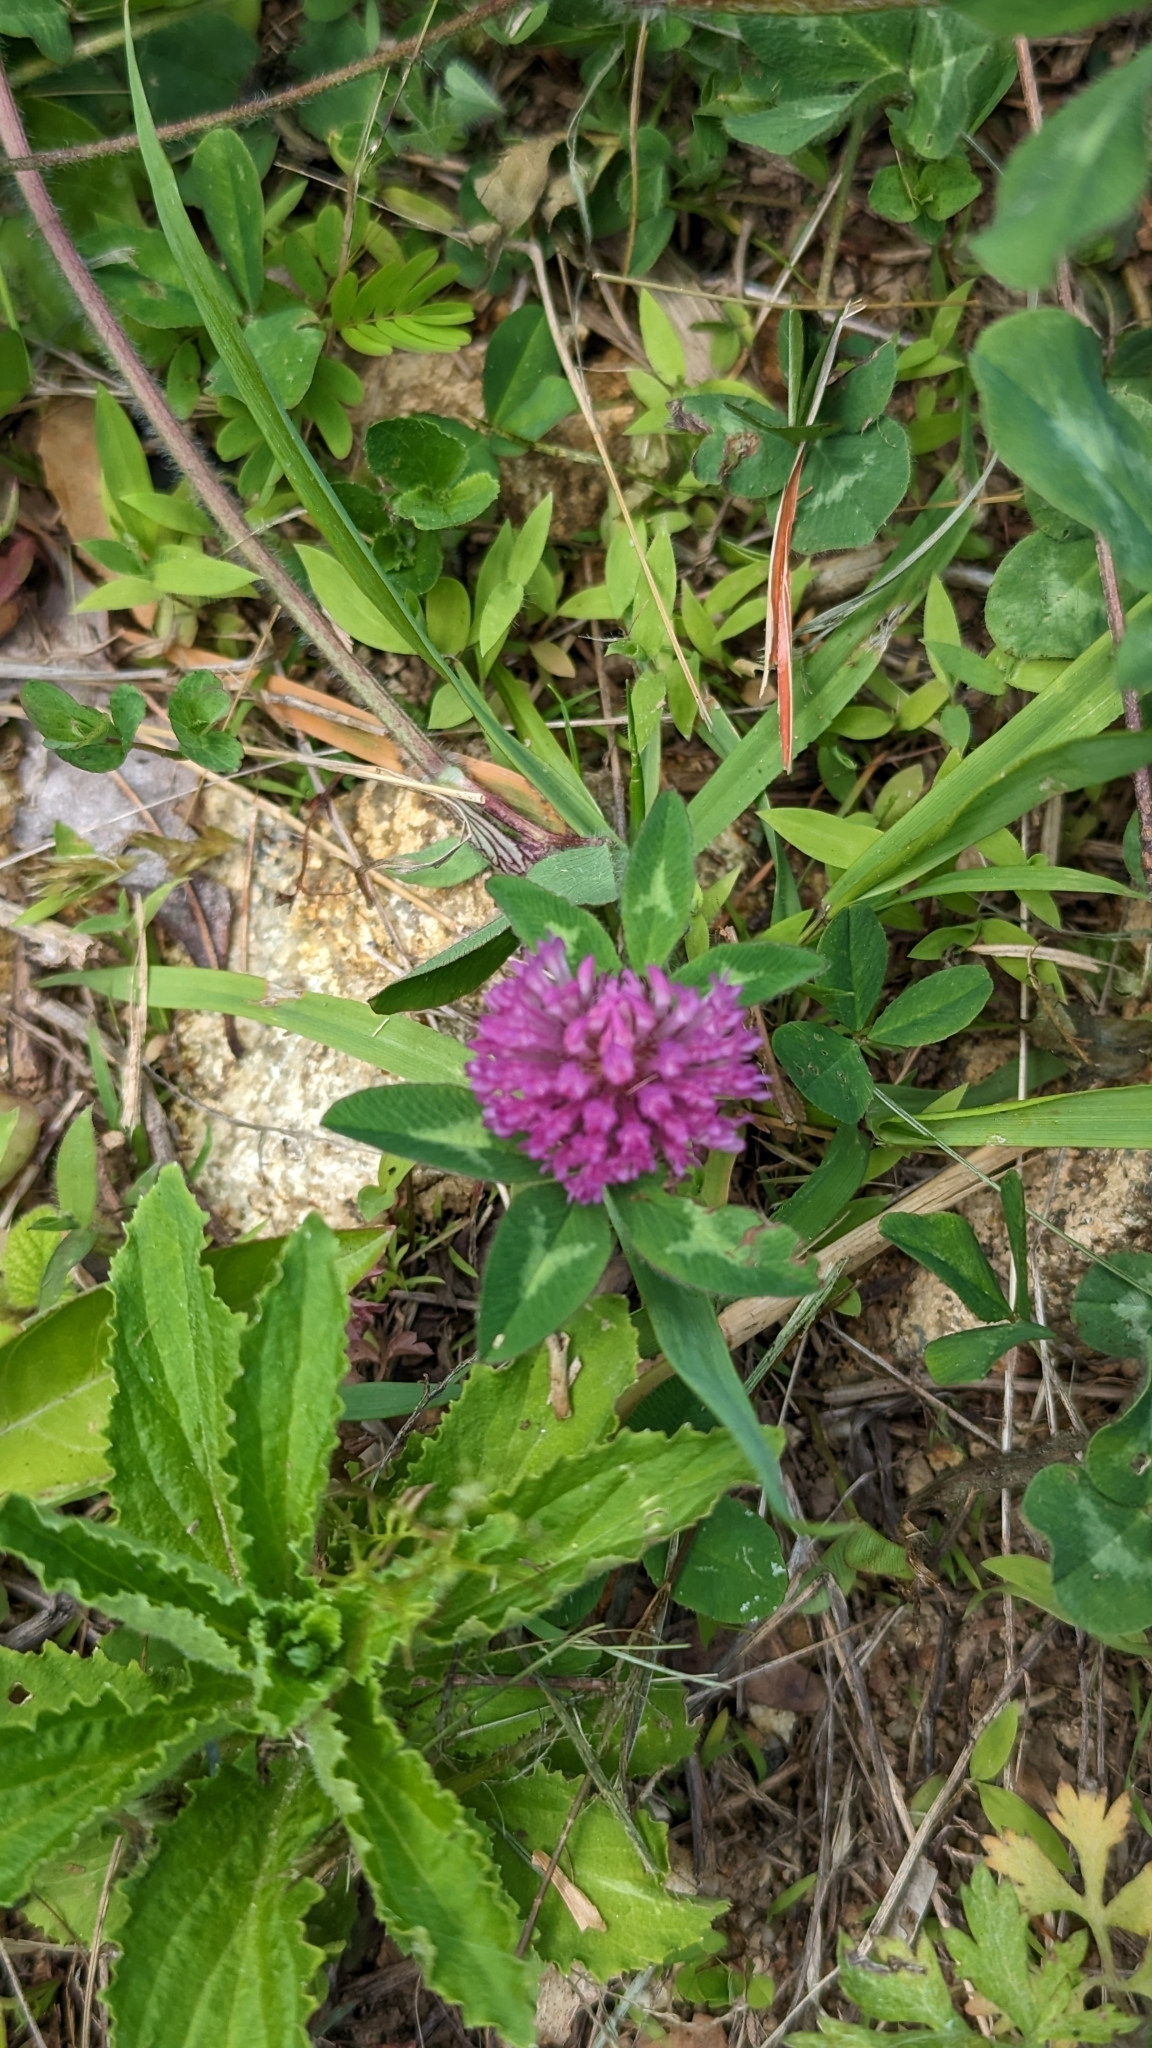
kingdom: Plantae
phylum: Tracheophyta
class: Magnoliopsida
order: Fabales
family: Fabaceae
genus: Trifolium
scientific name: Trifolium pratense
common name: Red clover
